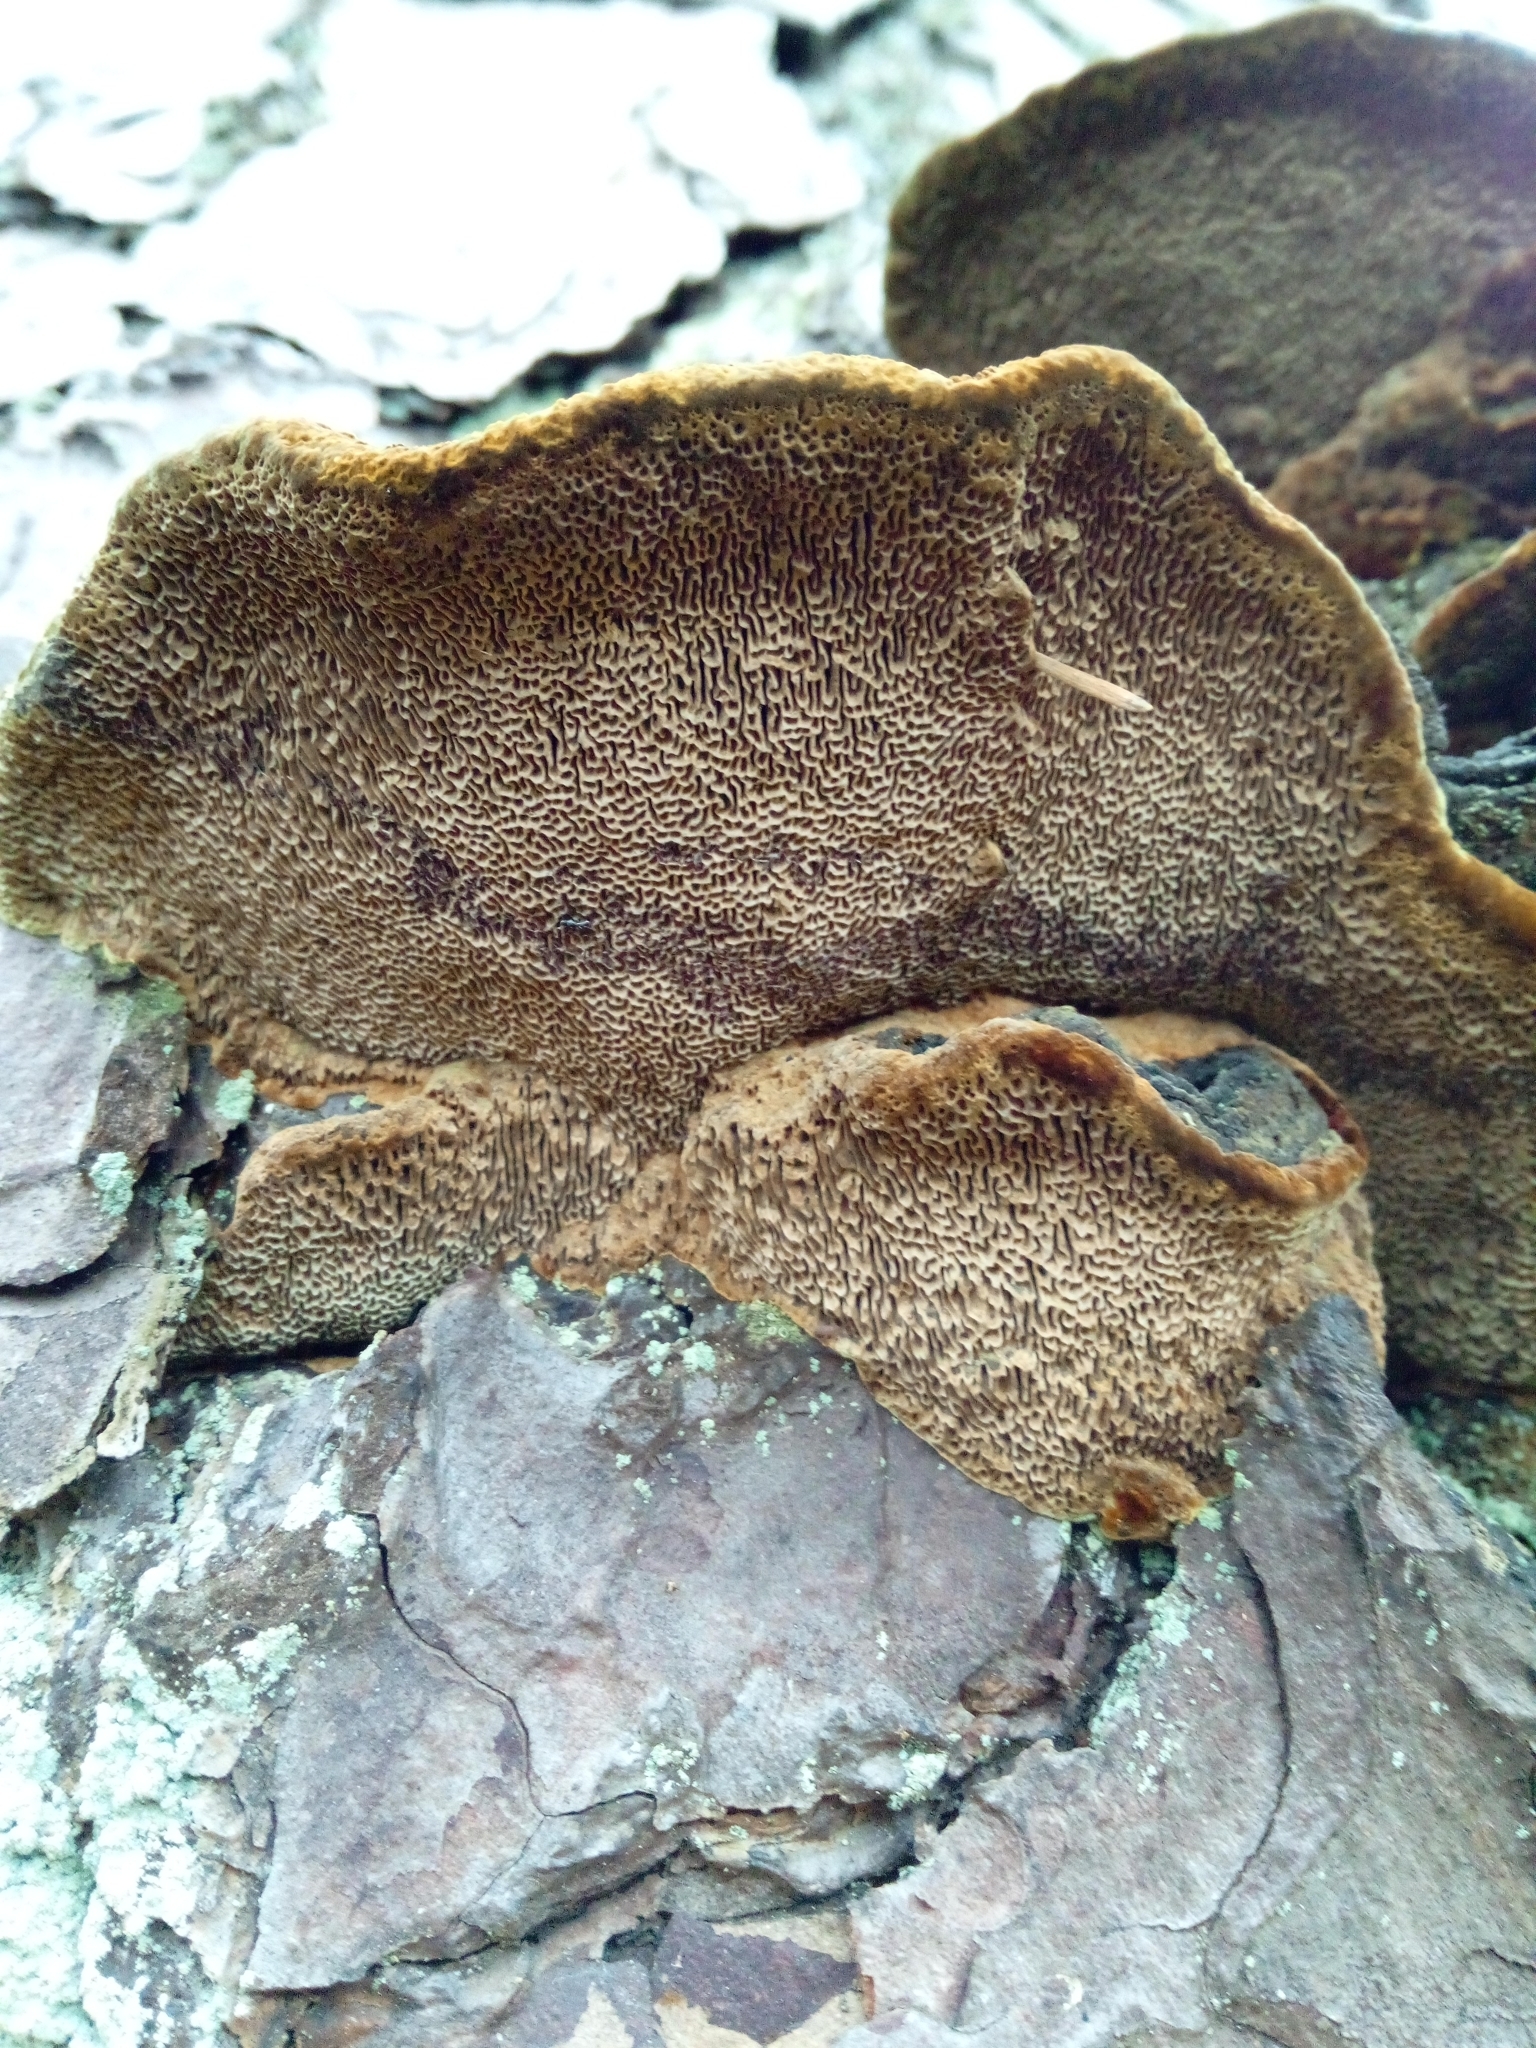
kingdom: Fungi
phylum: Basidiomycota
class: Agaricomycetes
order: Hymenochaetales
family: Hymenochaetaceae
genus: Porodaedalea
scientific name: Porodaedalea pini
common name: Pine bracket
